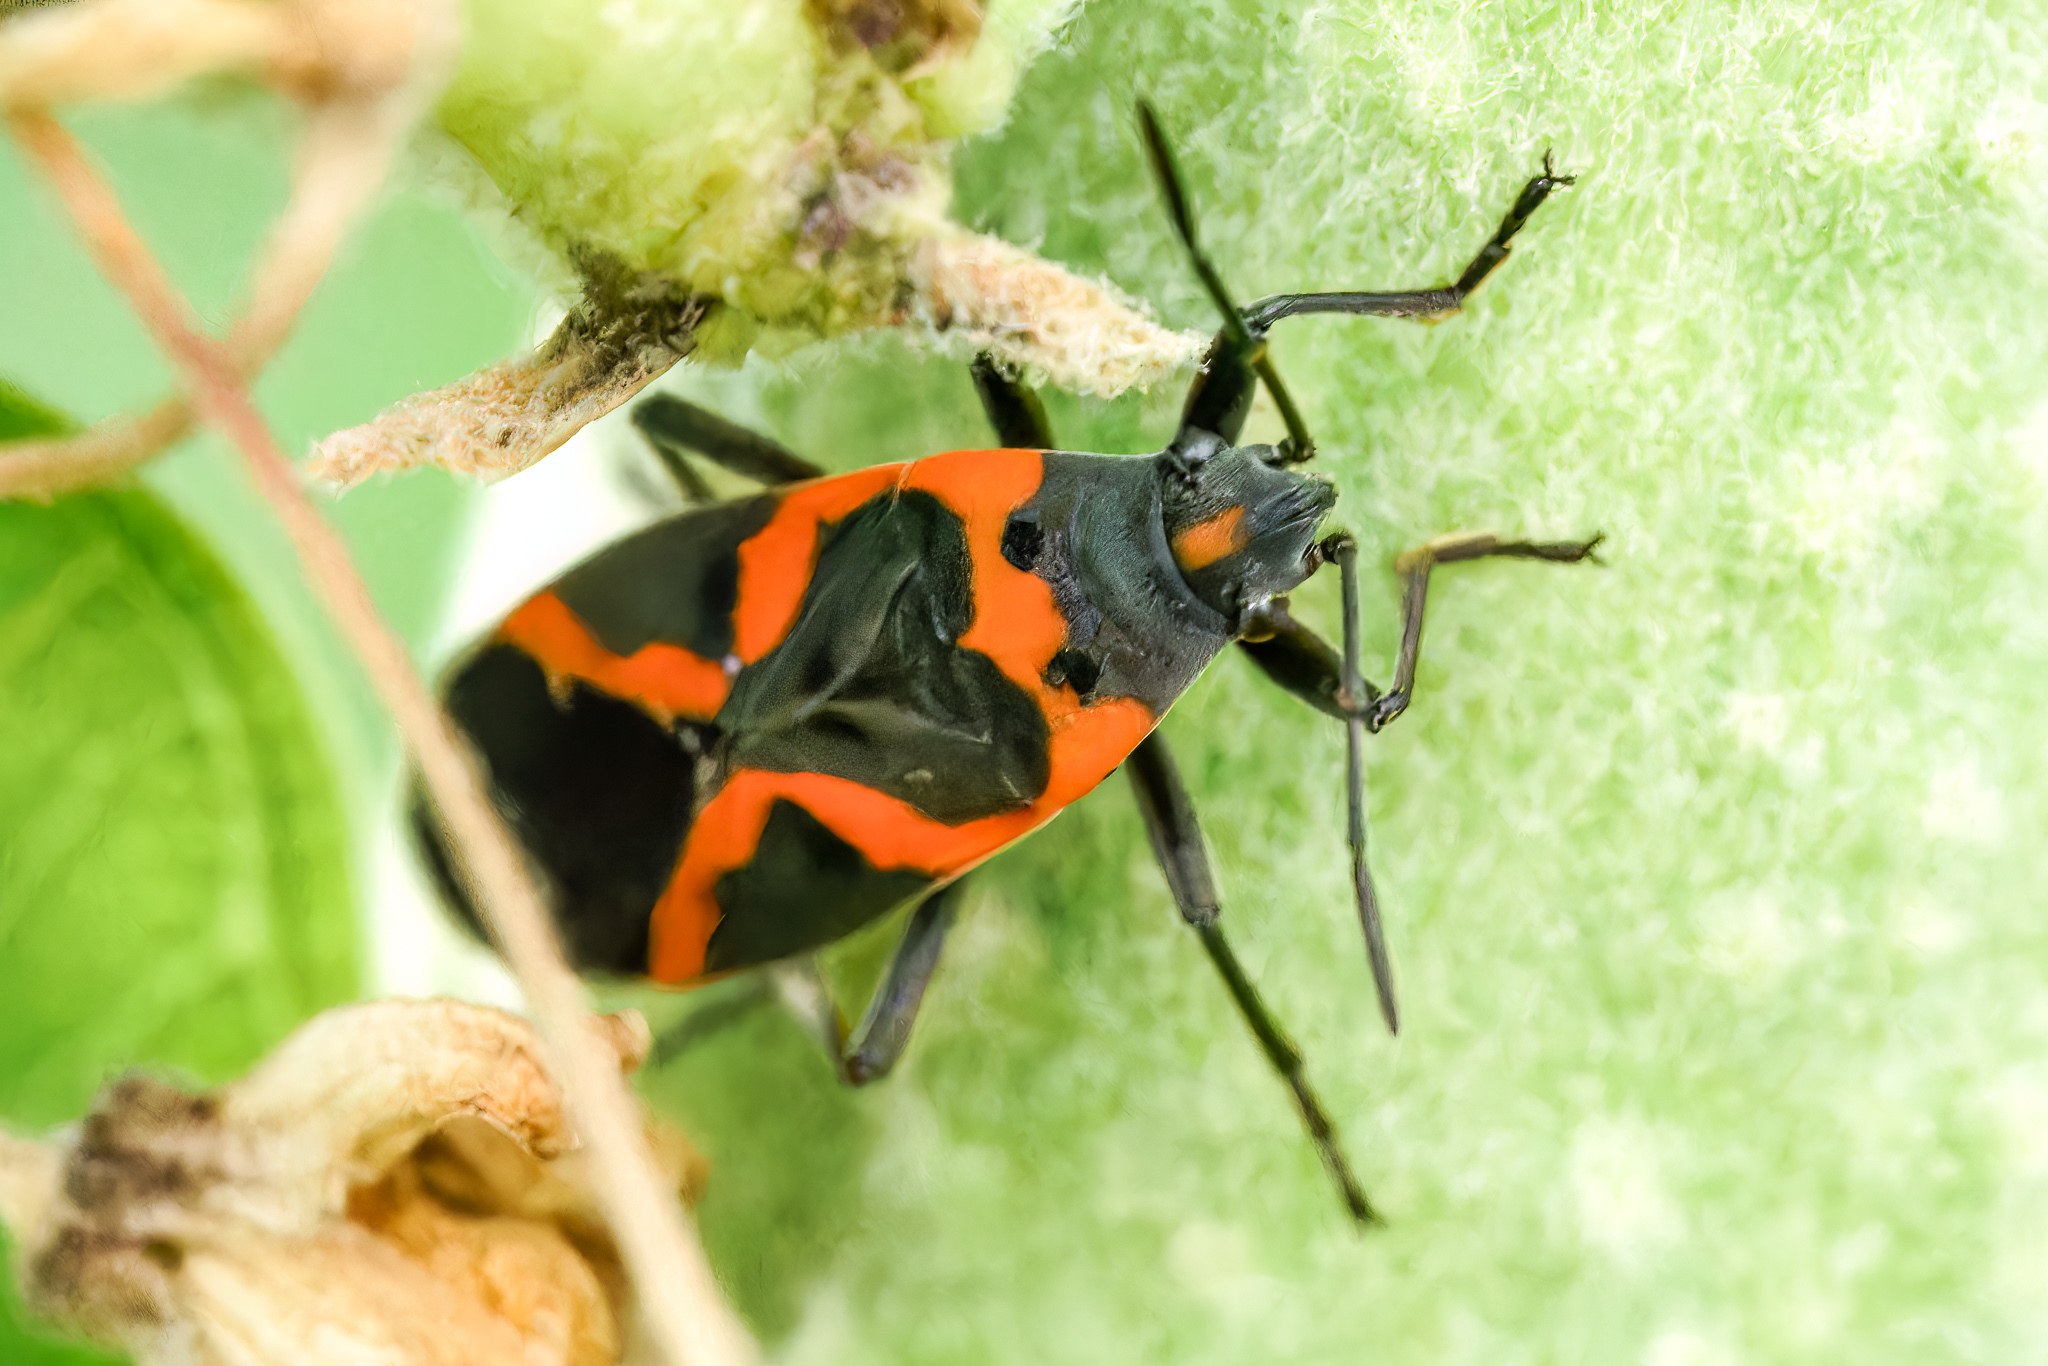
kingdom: Animalia
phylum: Arthropoda
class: Insecta
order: Hemiptera
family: Lygaeidae
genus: Lygaeus
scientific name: Lygaeus kalmii
